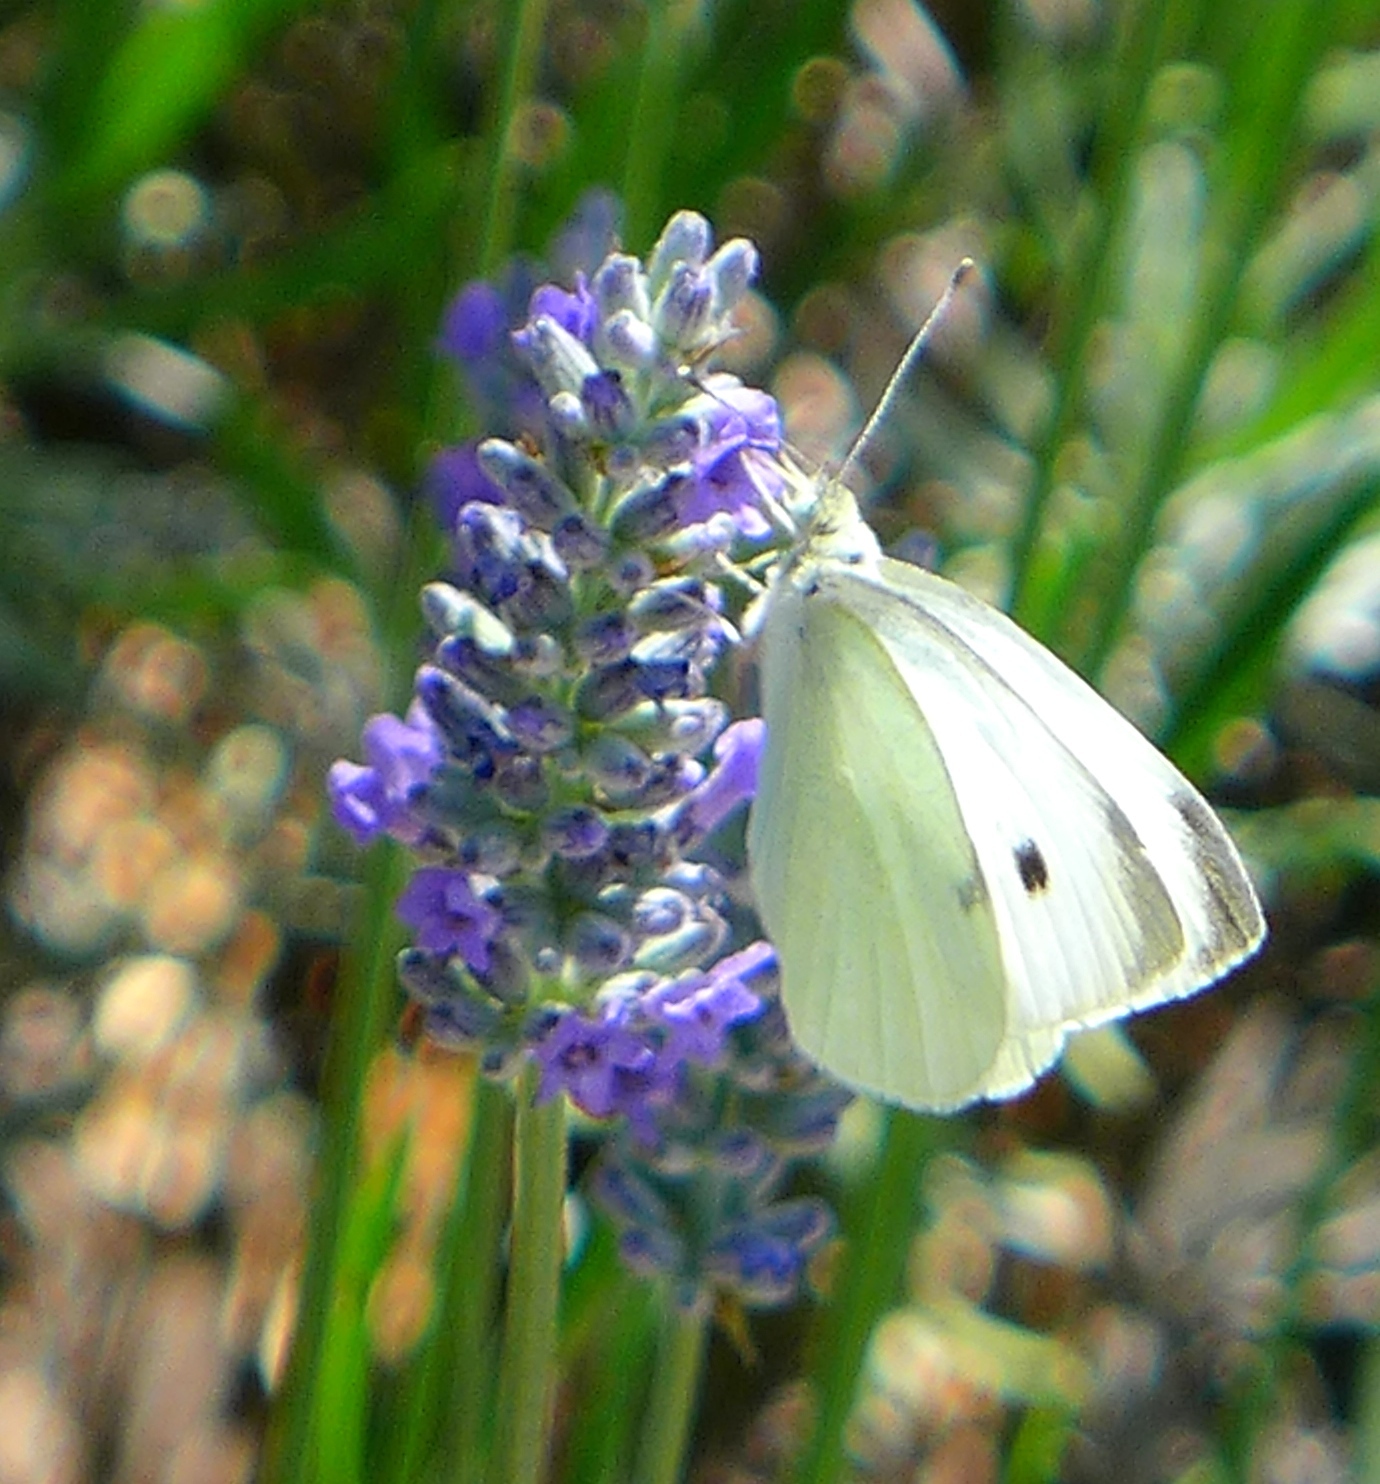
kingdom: Animalia
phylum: Arthropoda
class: Insecta
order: Lepidoptera
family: Pieridae
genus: Pieris
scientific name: Pieris rapae
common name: Small white
